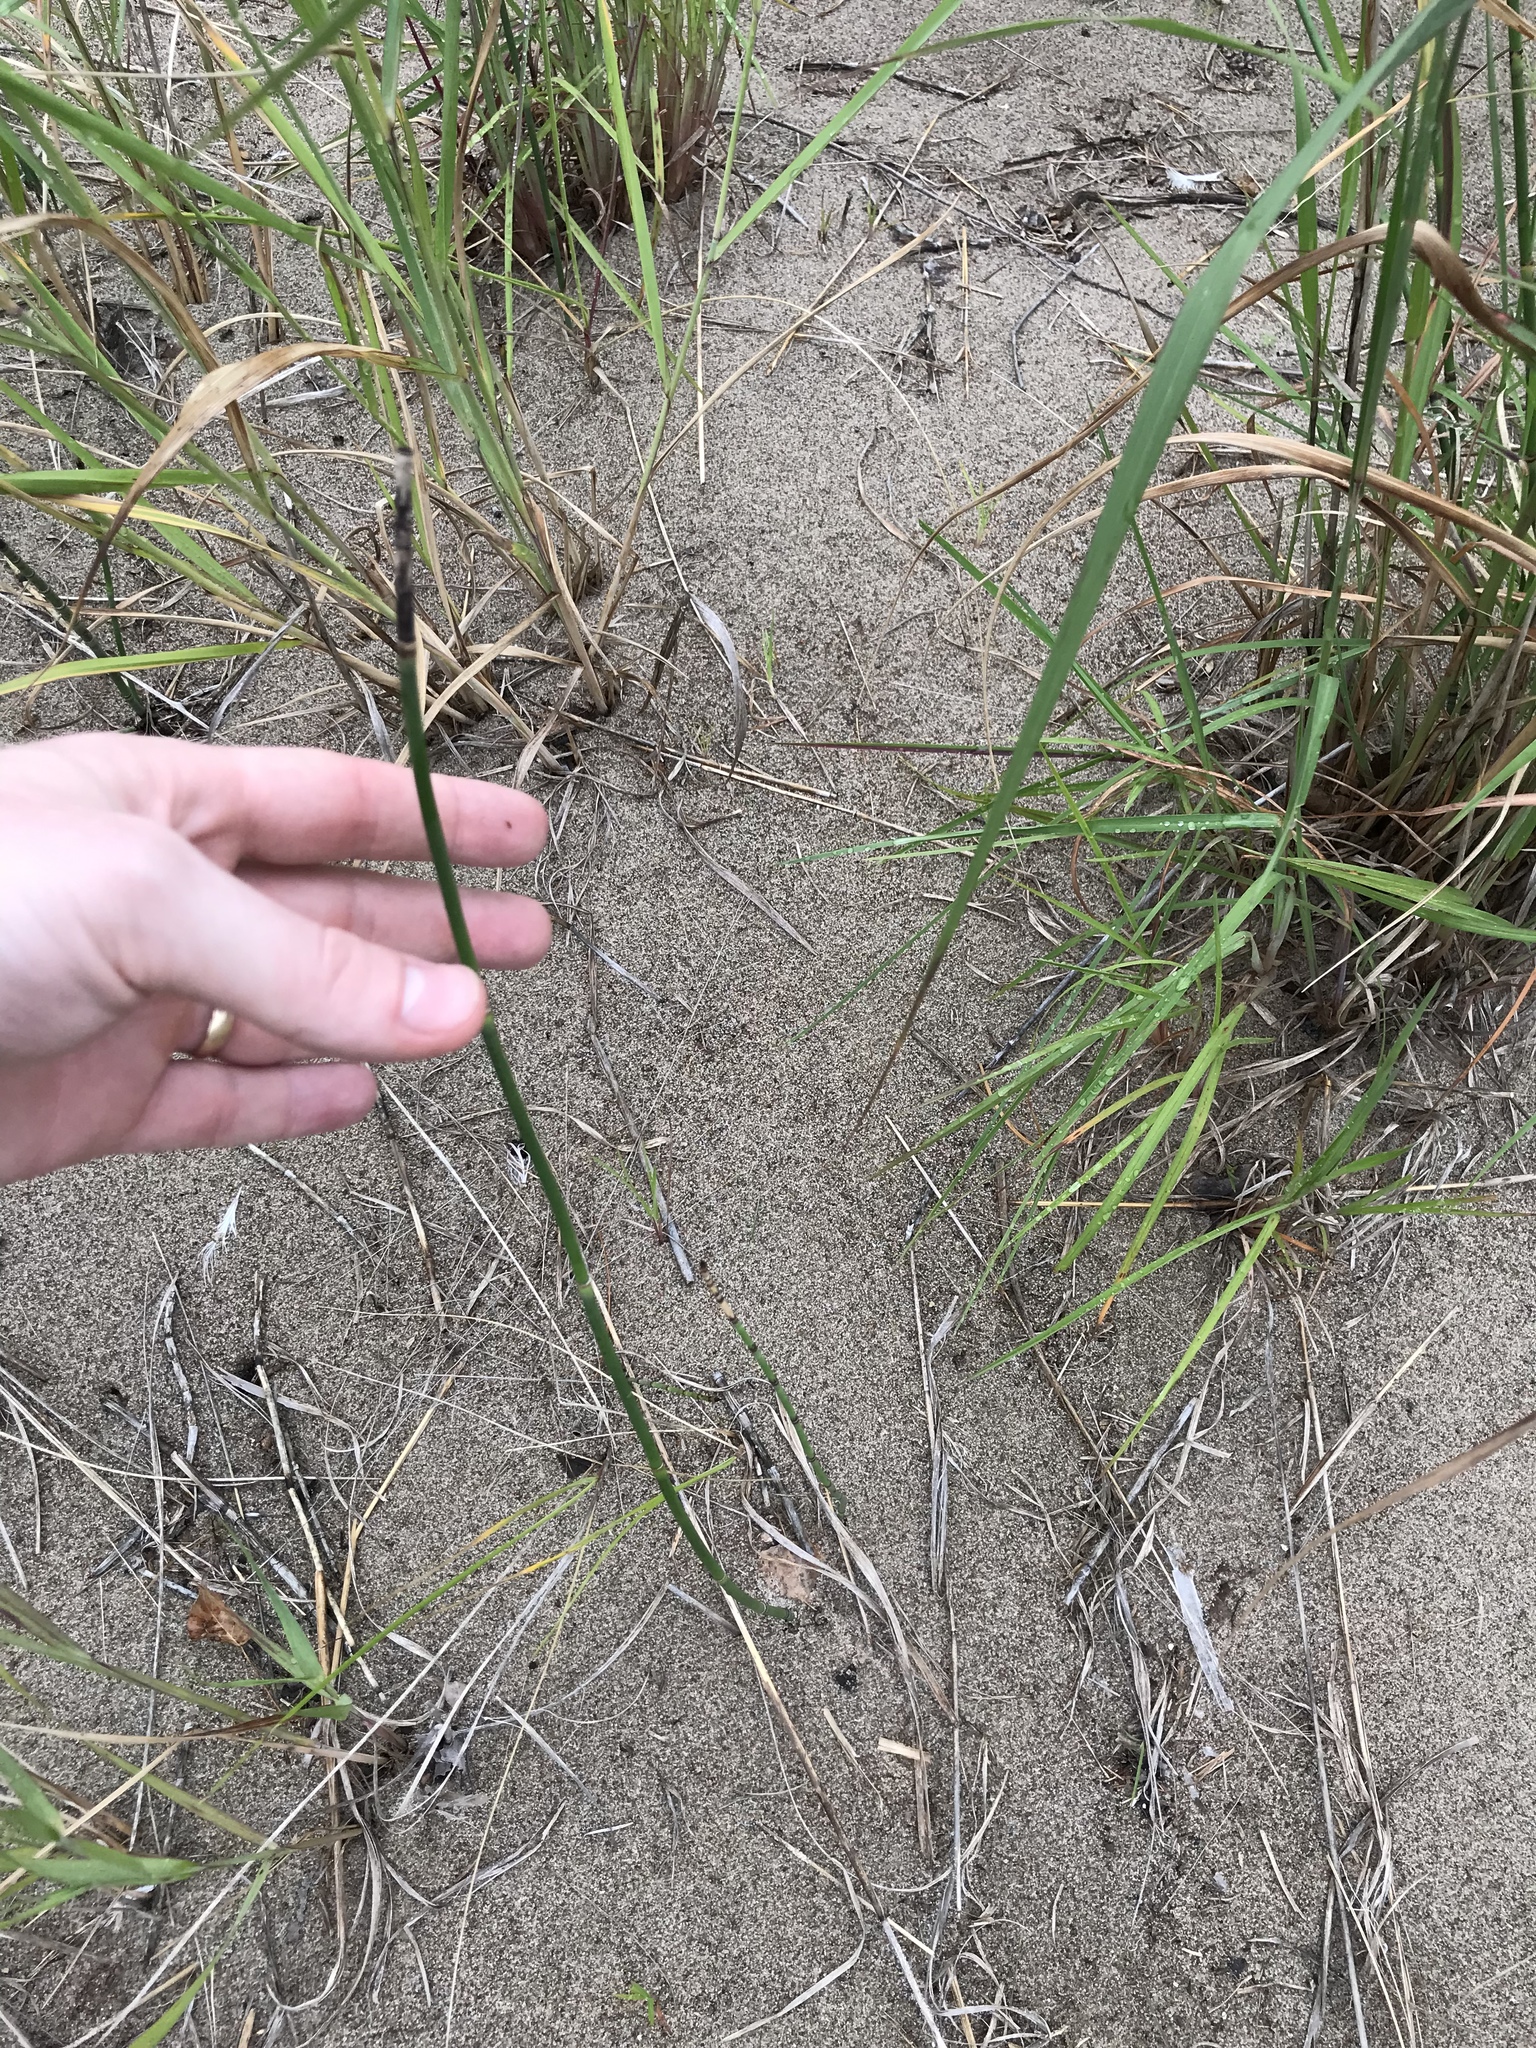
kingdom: Plantae
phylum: Tracheophyta
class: Polypodiopsida
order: Equisetales
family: Equisetaceae
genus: Equisetum
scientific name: Equisetum variegatum
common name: Variegated horsetail
